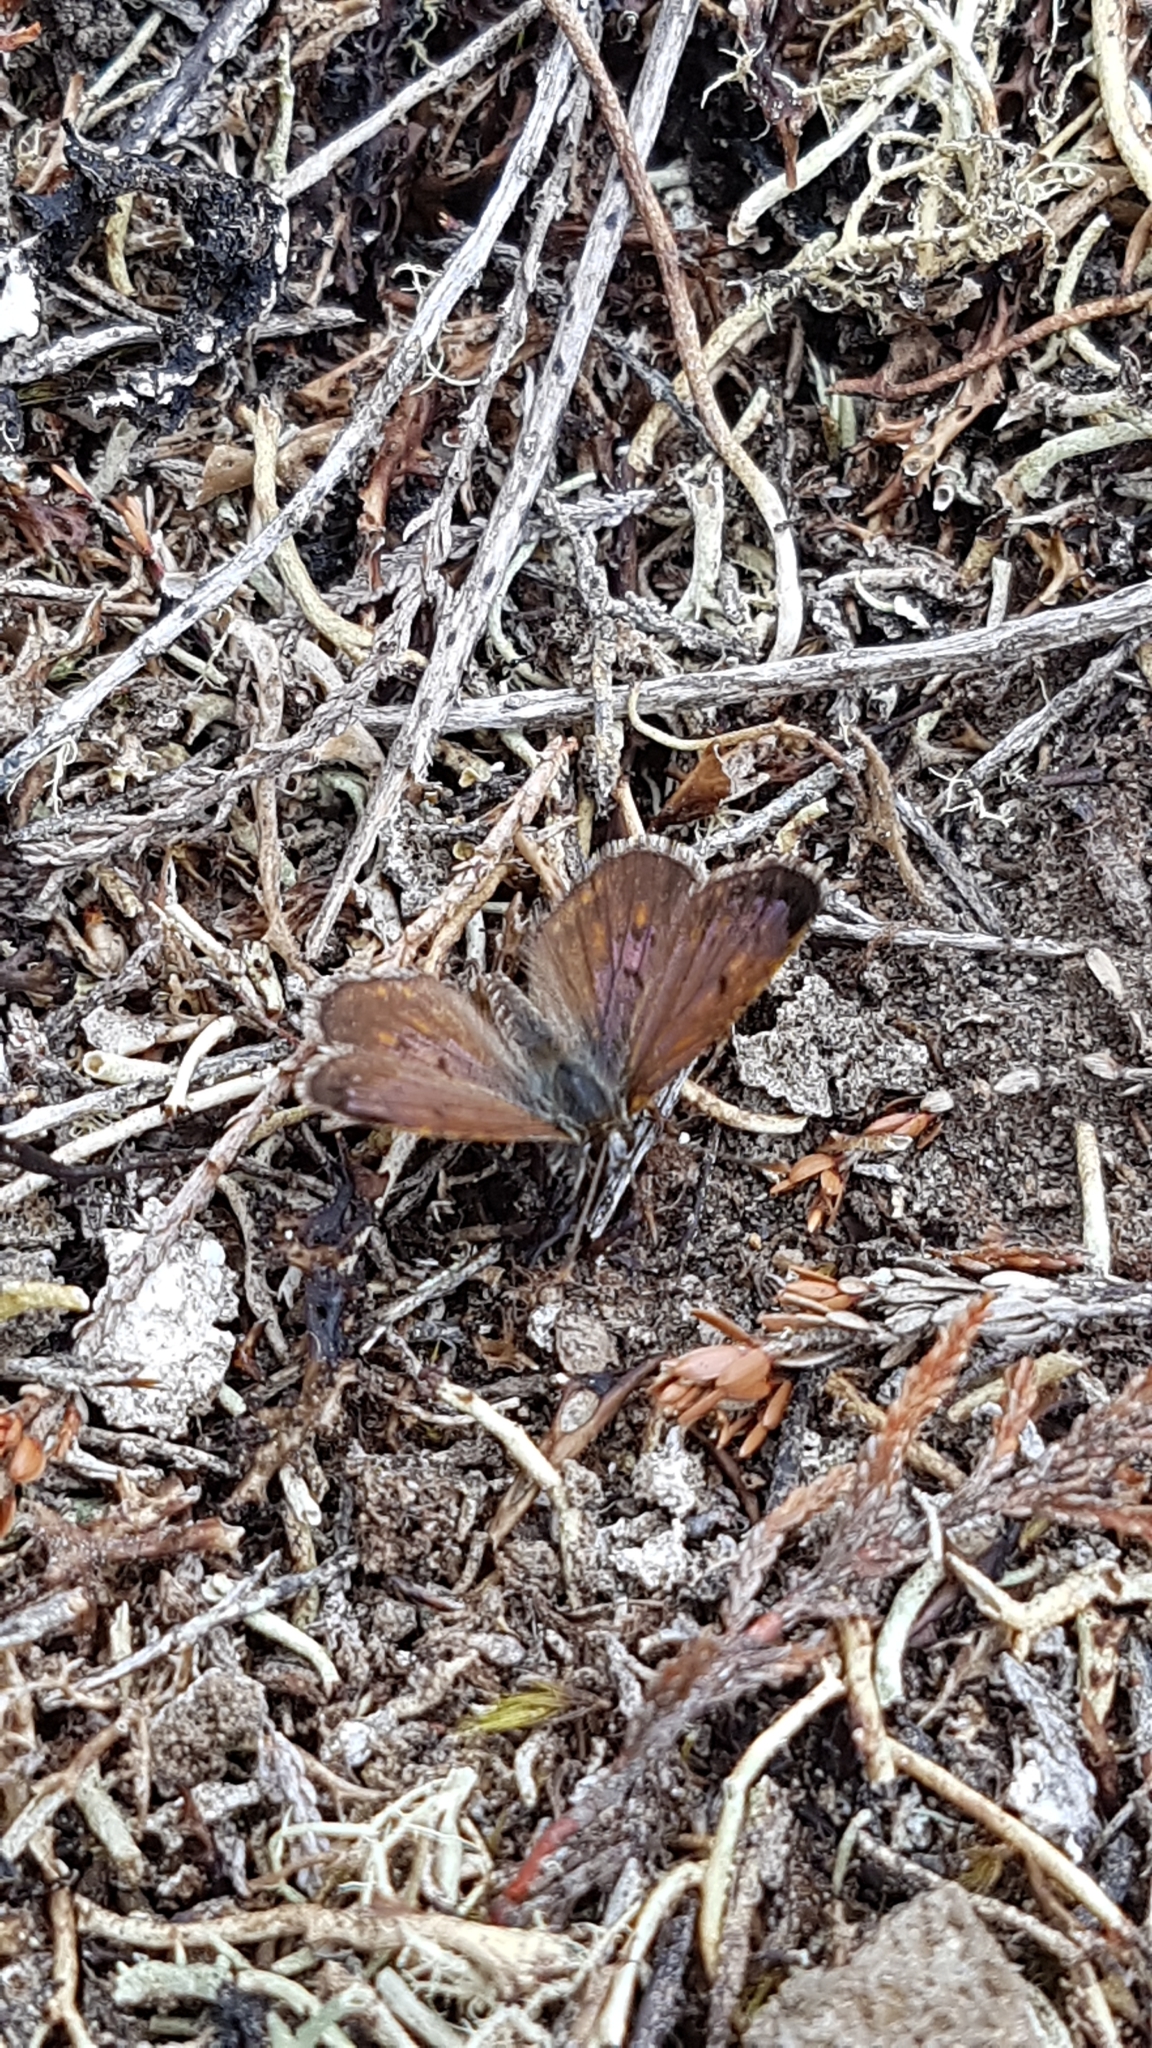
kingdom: Animalia
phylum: Arthropoda
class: Insecta
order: Lepidoptera
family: Lycaenidae
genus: Lycaena
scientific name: Lycaena boldenarum
